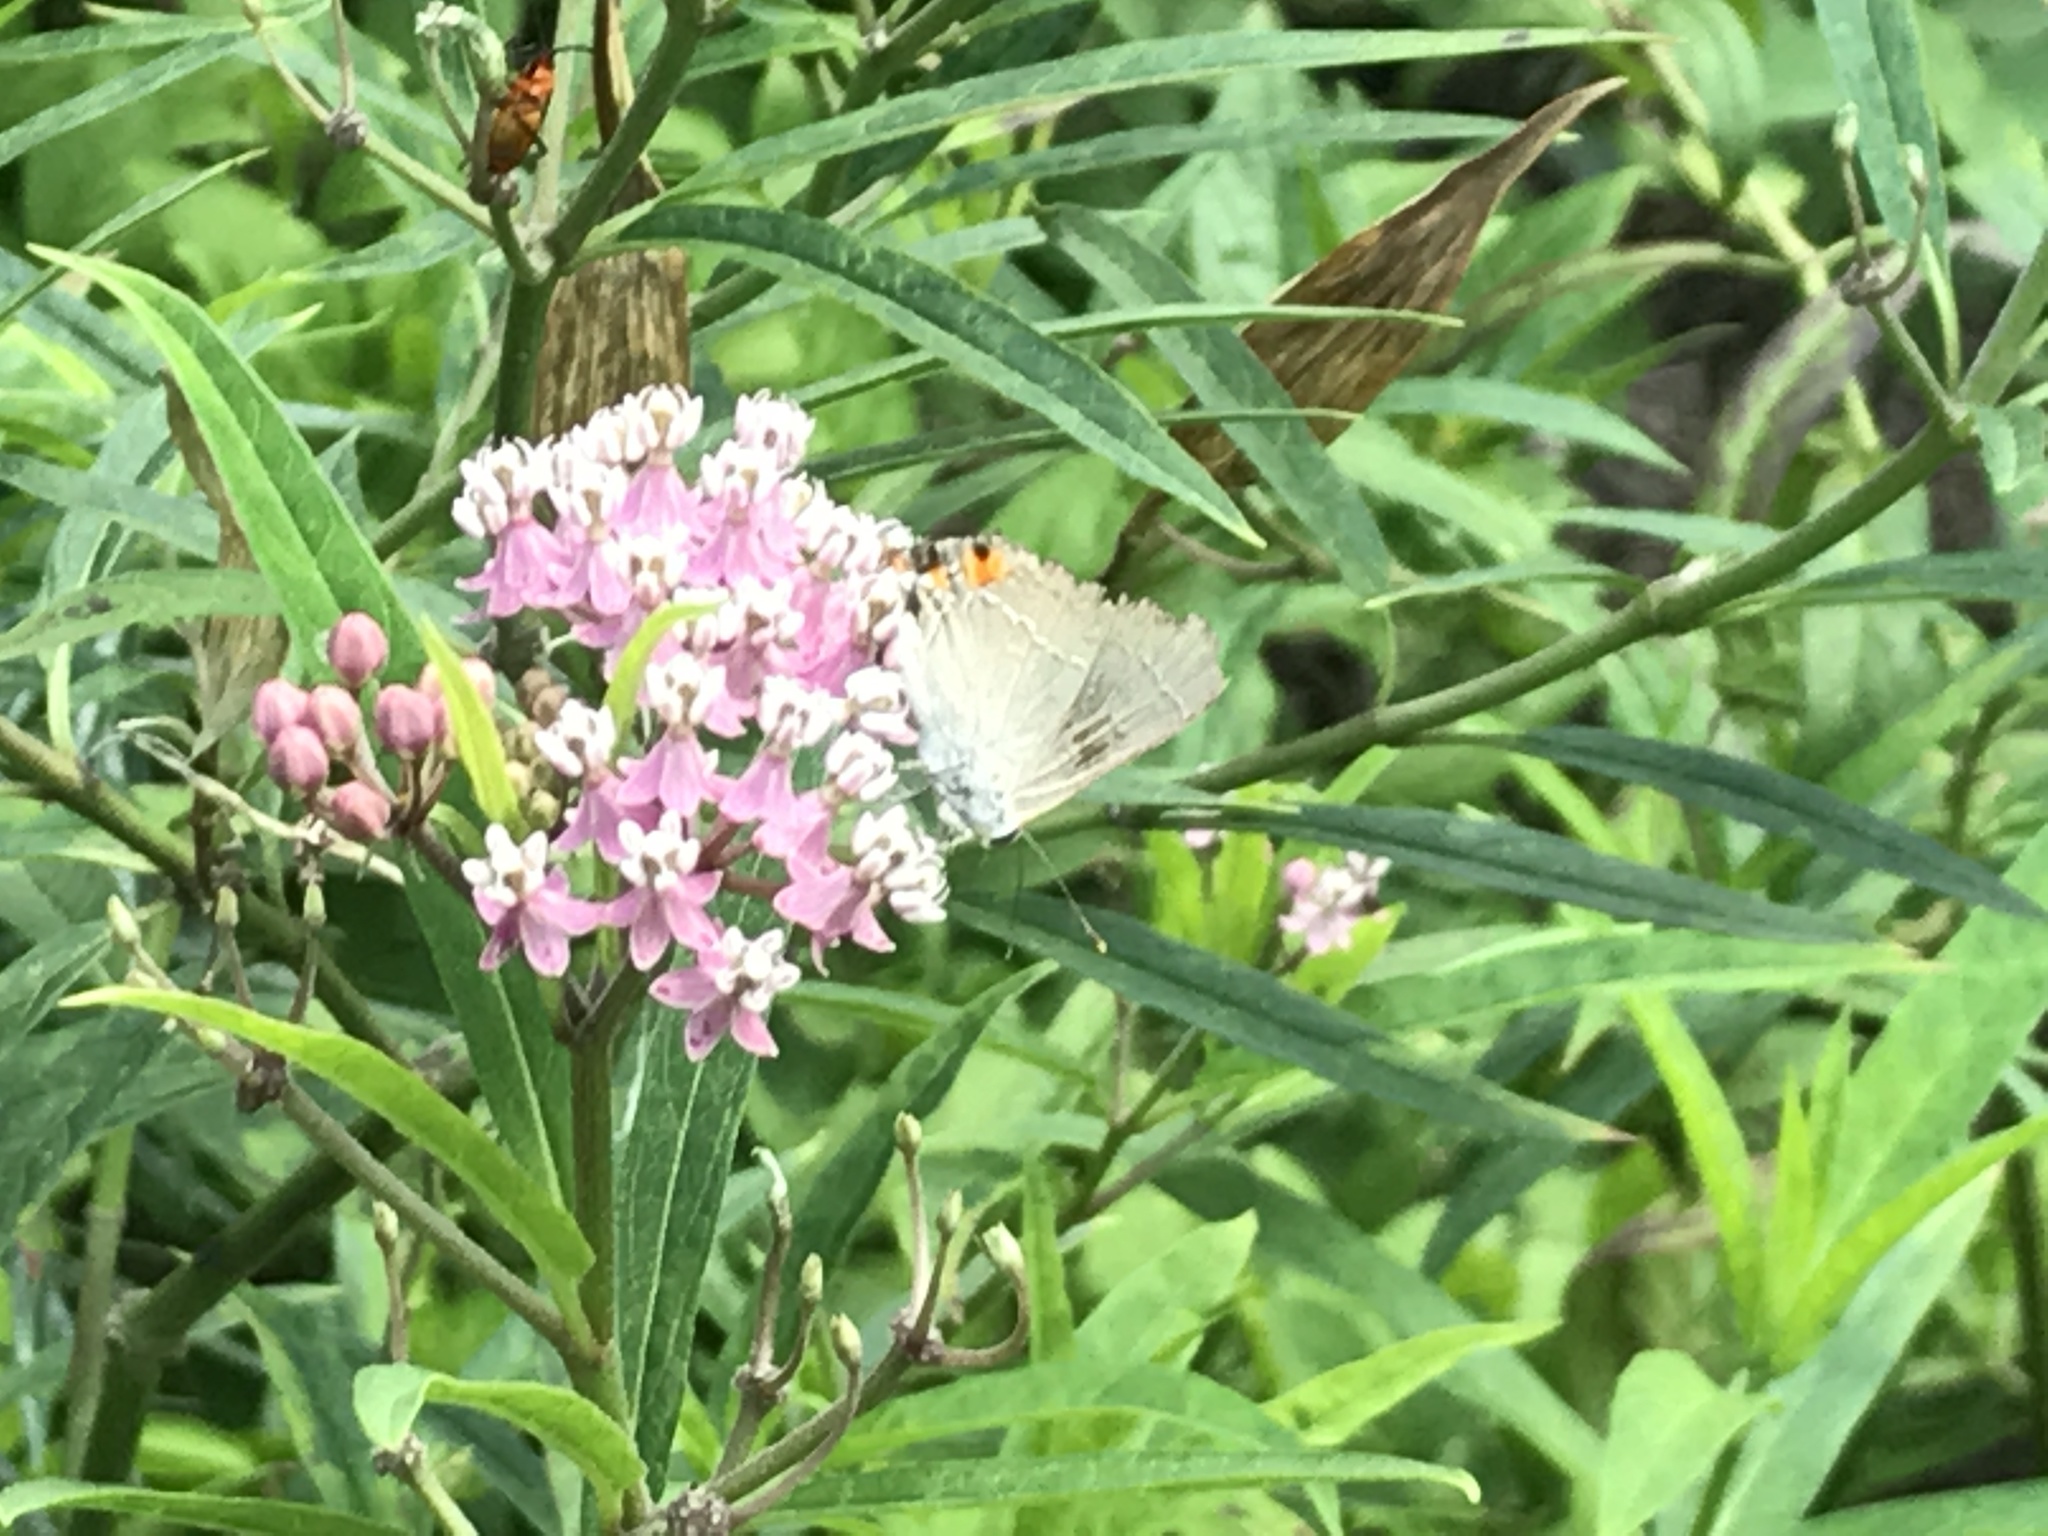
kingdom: Animalia
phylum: Arthropoda
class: Insecta
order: Lepidoptera
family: Lycaenidae
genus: Strymon
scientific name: Strymon melinus
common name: Gray hairstreak
